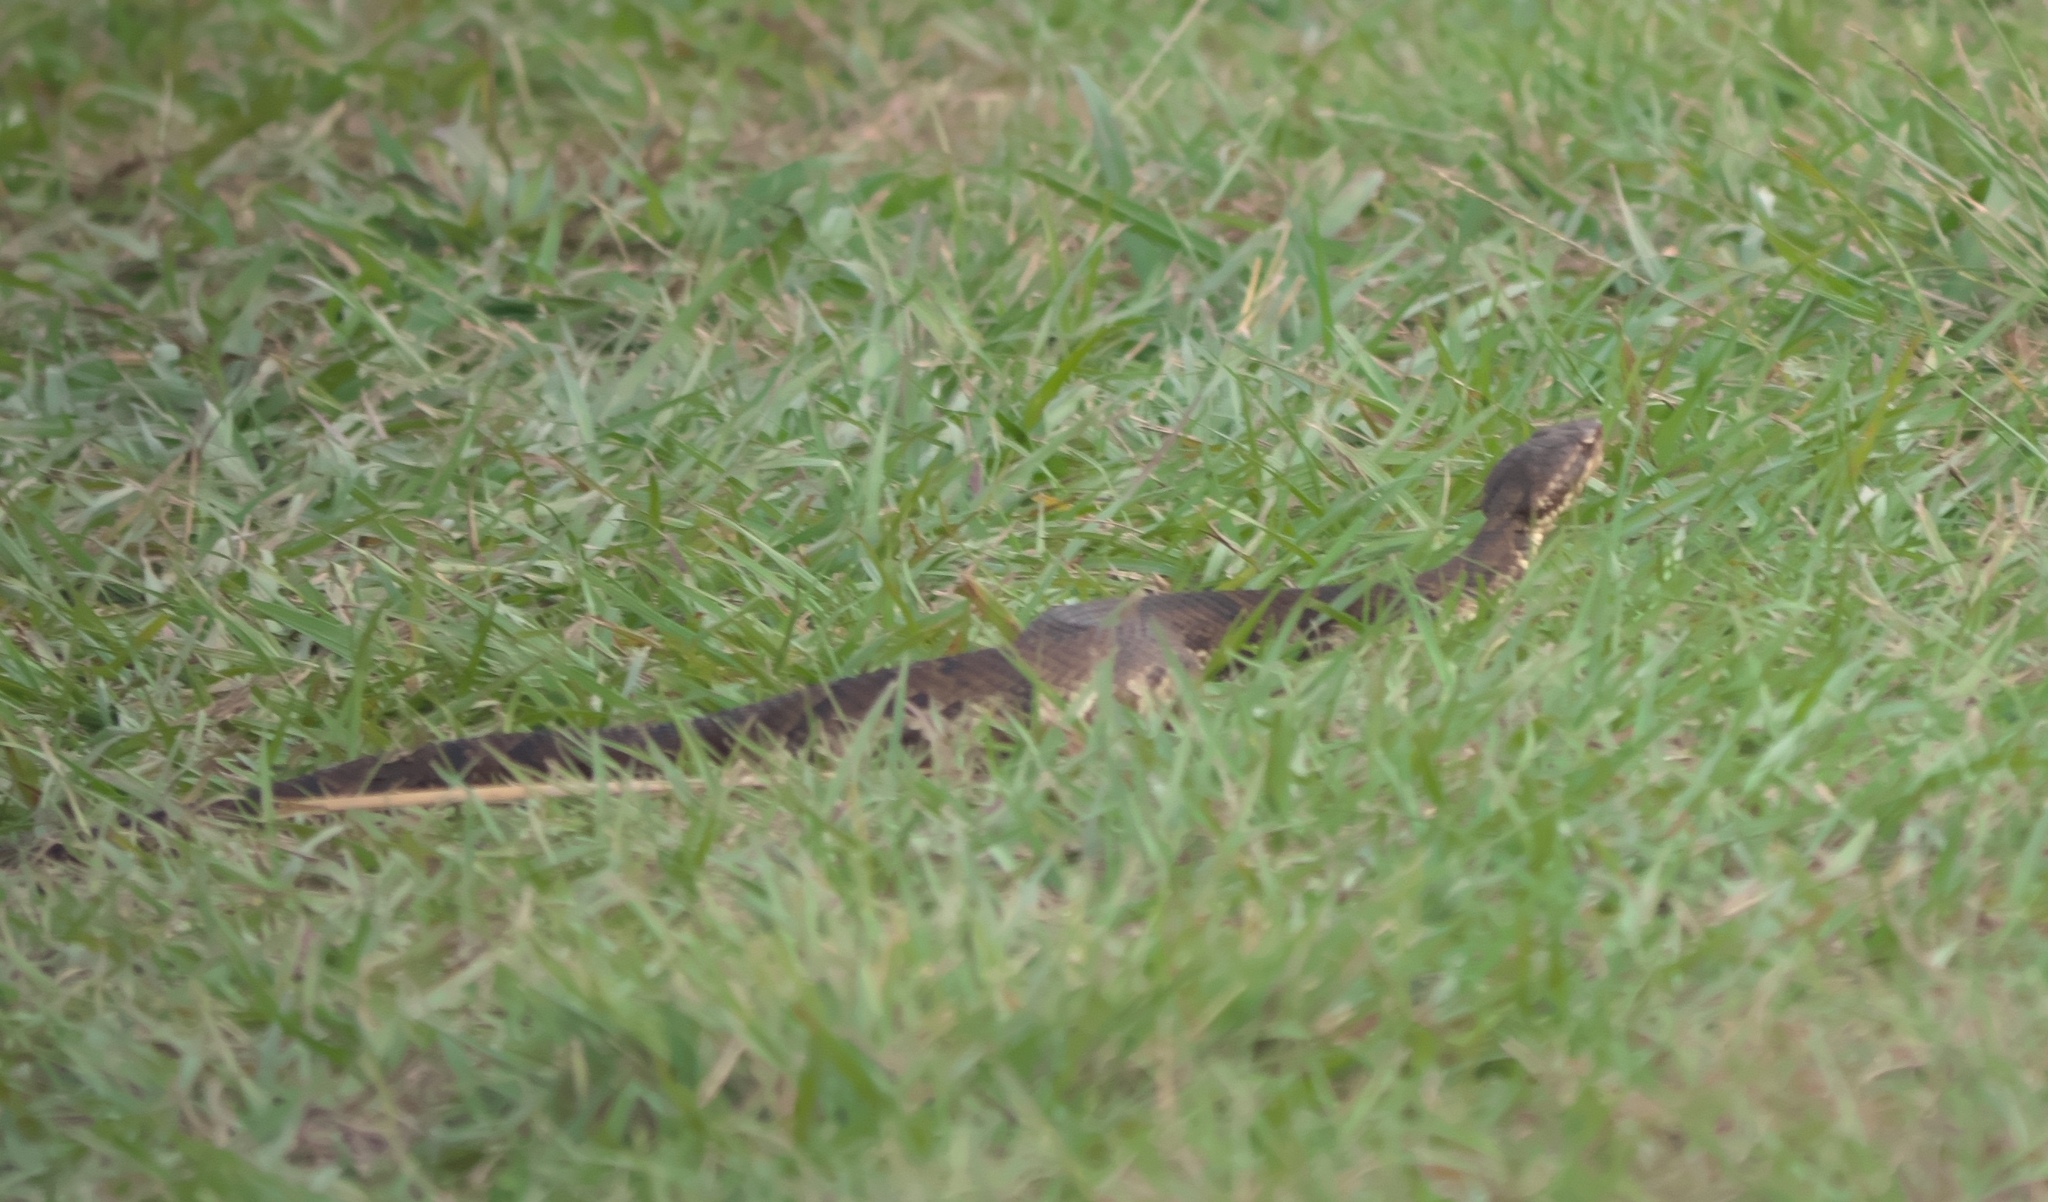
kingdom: Animalia
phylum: Chordata
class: Squamata
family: Viperidae
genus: Agkistrodon
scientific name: Agkistrodon piscivorus
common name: Cottonmouth
